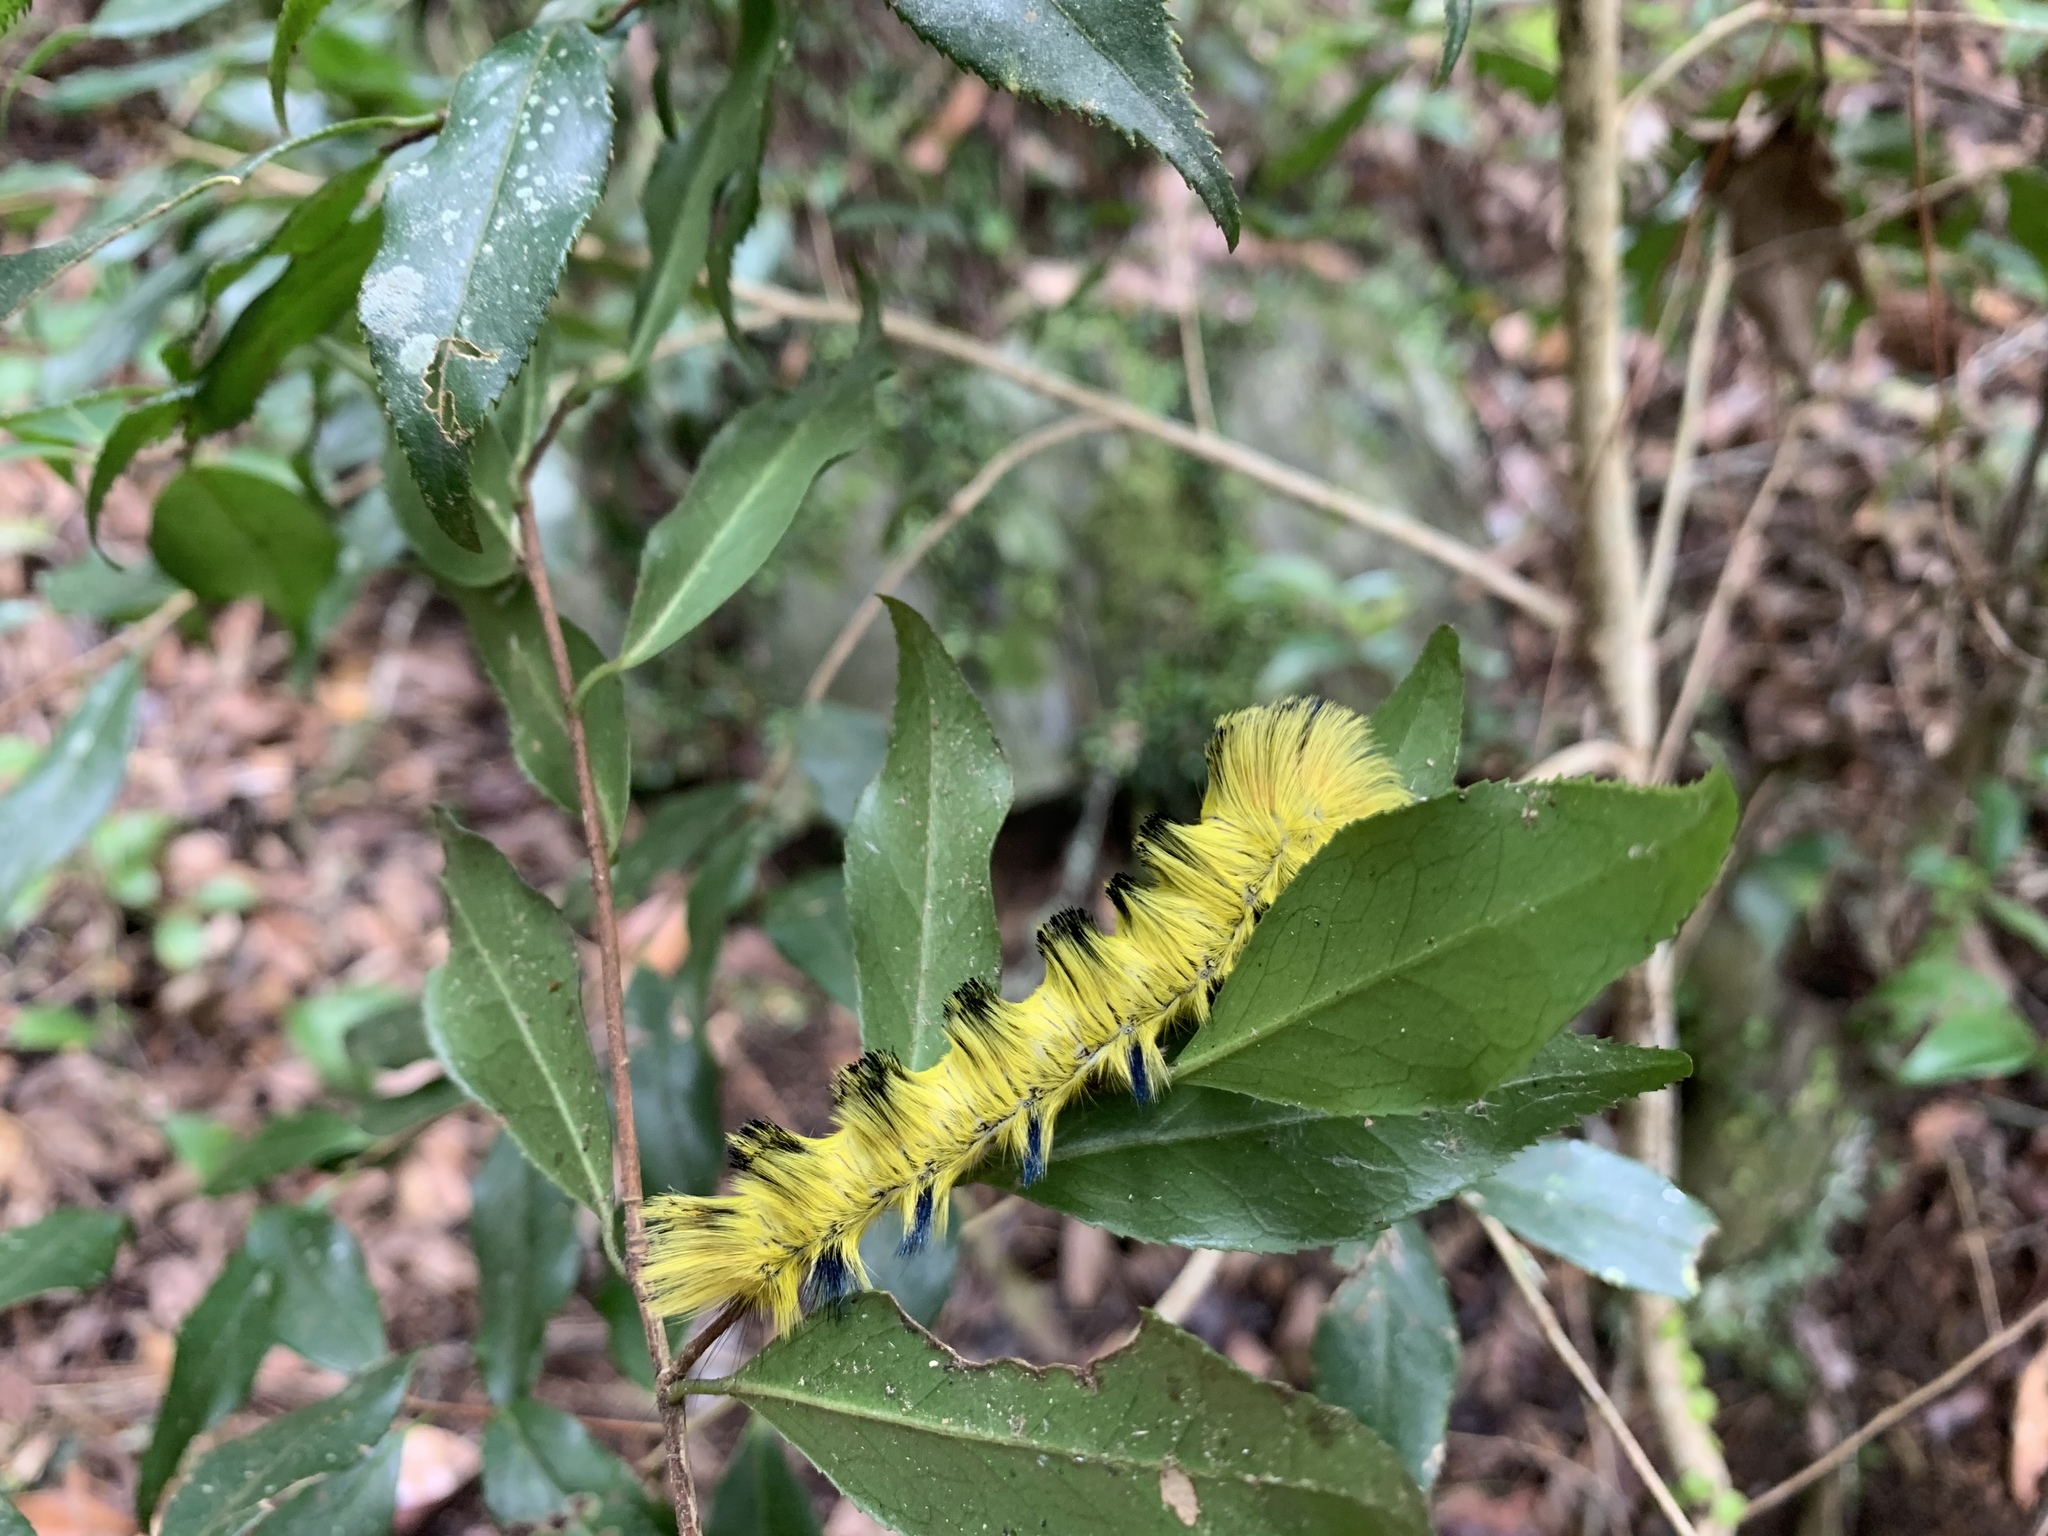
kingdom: Animalia
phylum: Arthropoda
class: Insecta
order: Lepidoptera
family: Eupterotidae
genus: Palirisa
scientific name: Palirisa cervina
